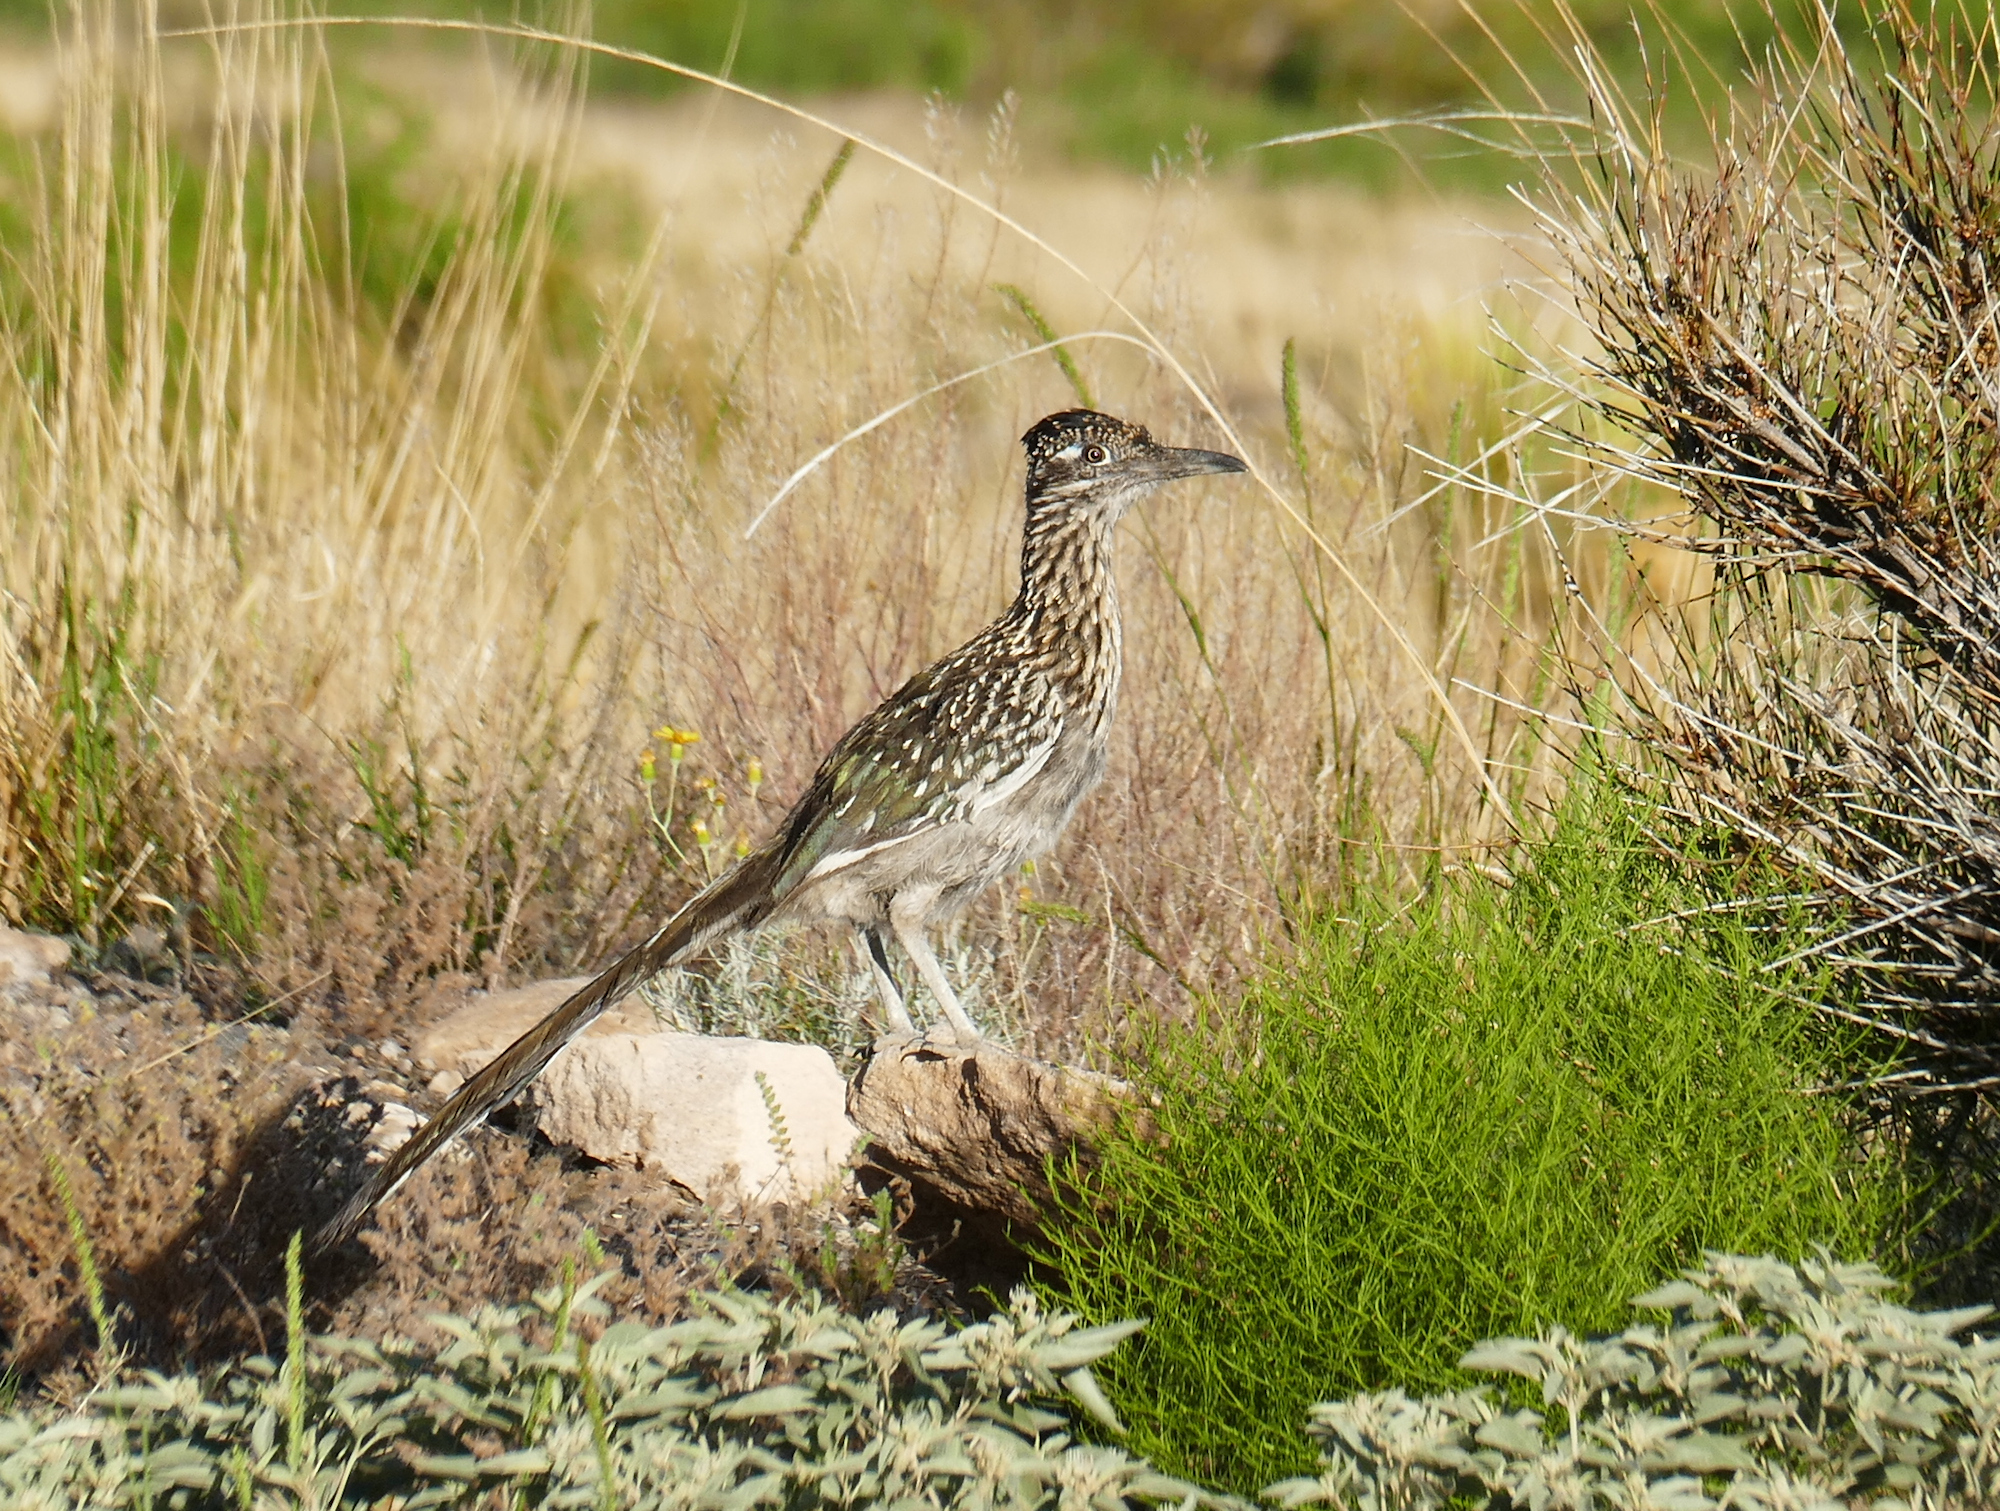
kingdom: Animalia
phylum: Chordata
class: Aves
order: Cuculiformes
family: Cuculidae
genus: Geococcyx
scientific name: Geococcyx californianus
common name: Greater roadrunner
